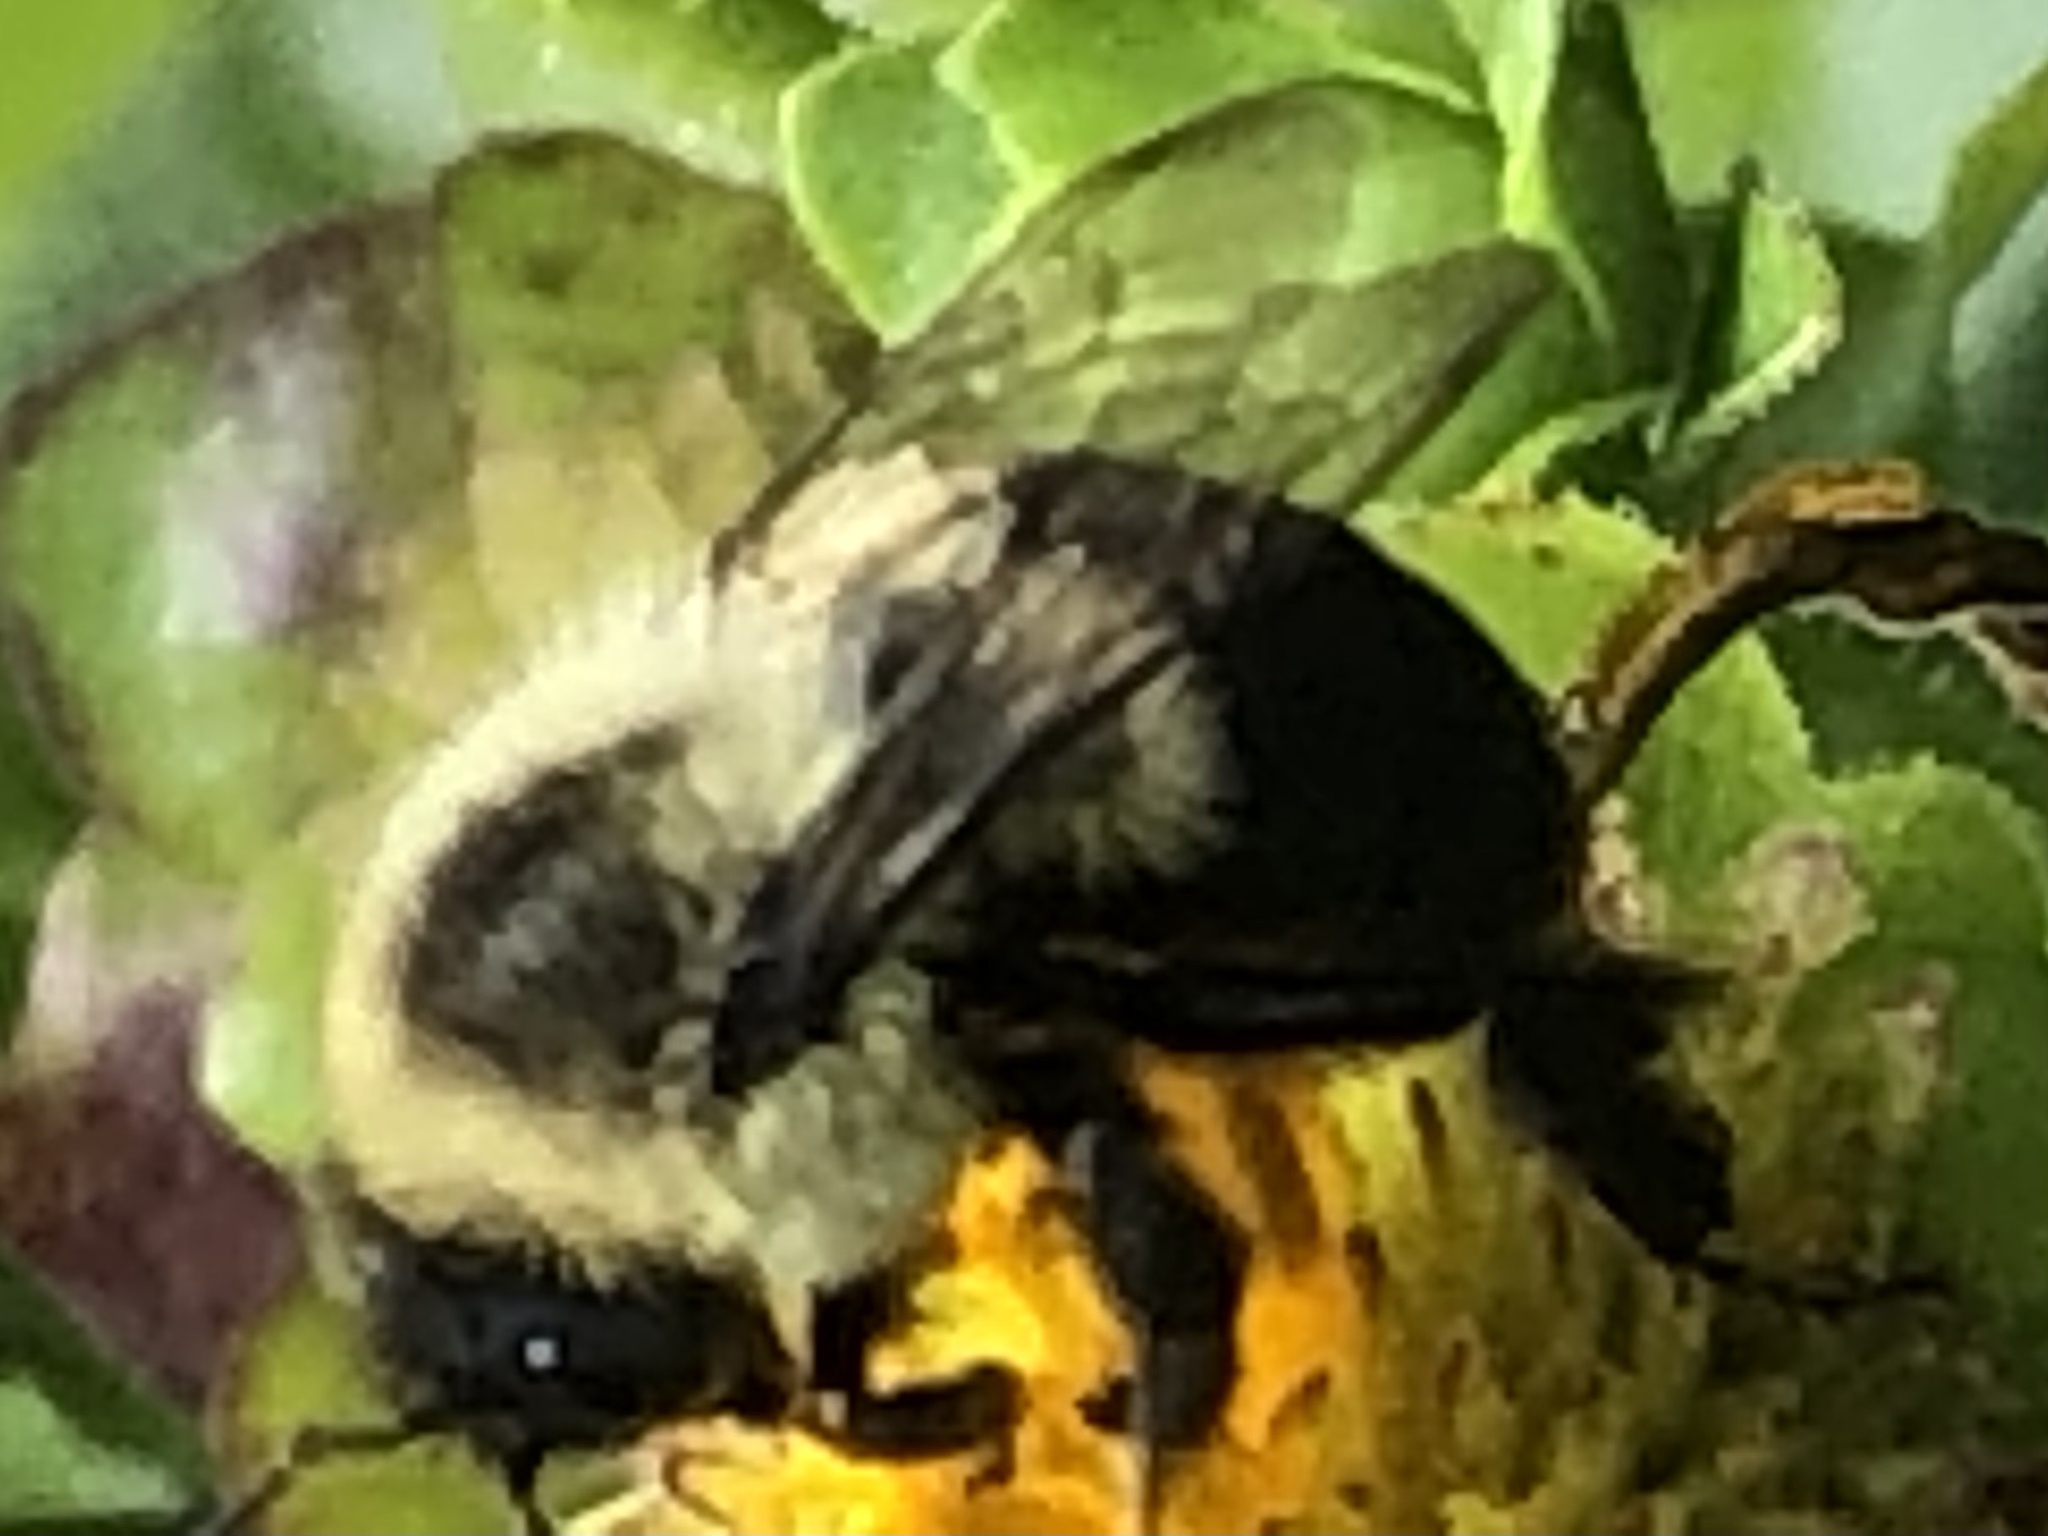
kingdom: Animalia
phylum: Arthropoda
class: Insecta
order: Hymenoptera
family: Apidae
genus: Bombus
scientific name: Bombus impatiens
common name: Common eastern bumble bee
